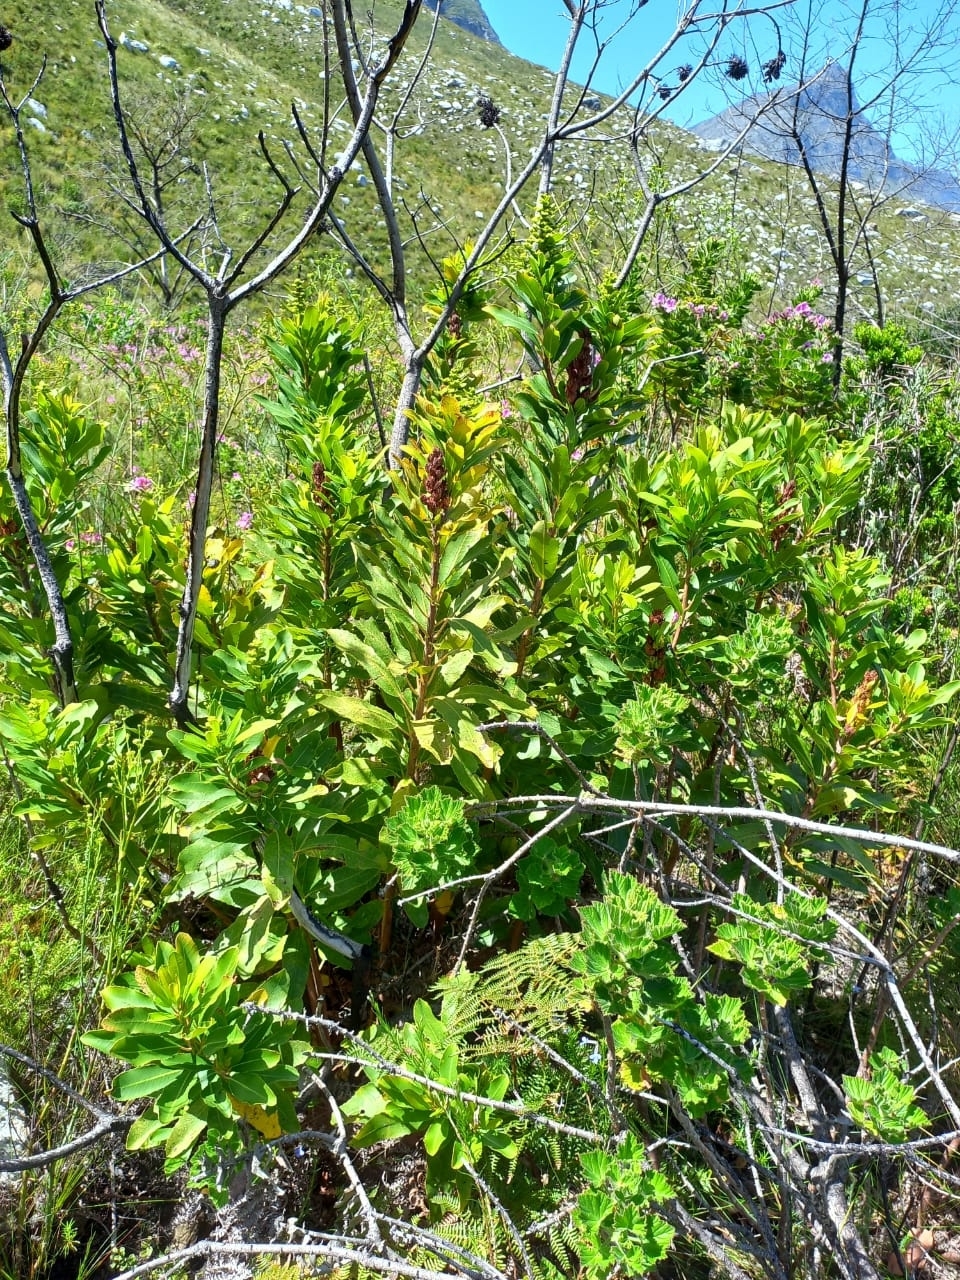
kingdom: Plantae
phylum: Tracheophyta
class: Magnoliopsida
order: Sapindales
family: Anacardiaceae
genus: Laurophyllus
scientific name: Laurophyllus capensis
